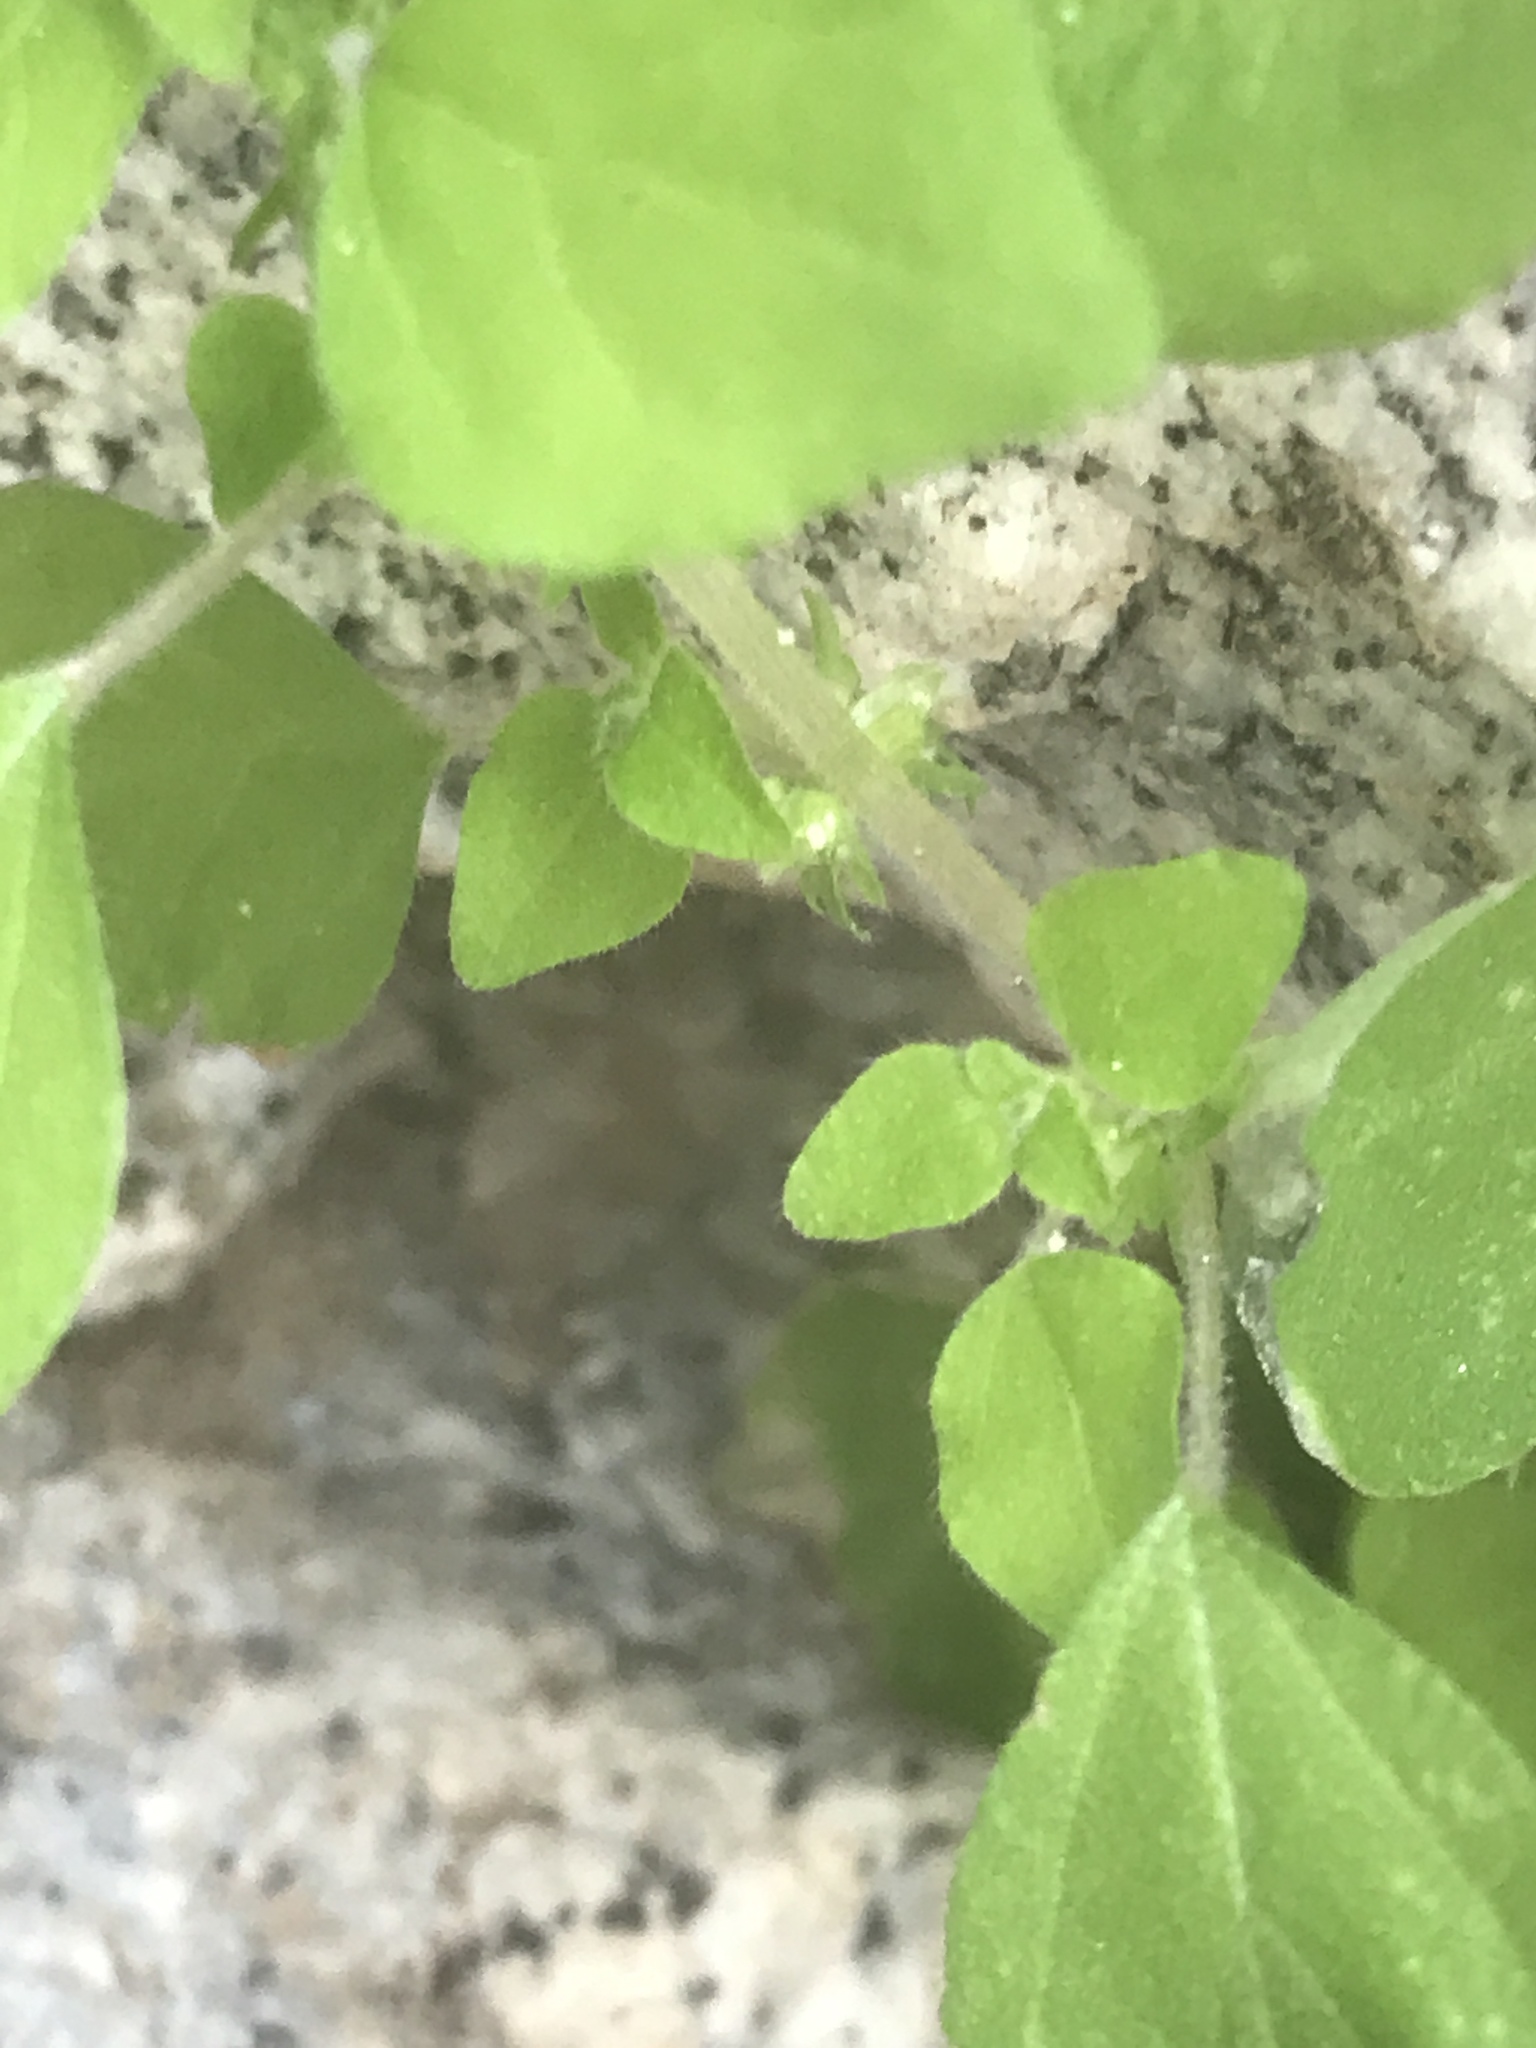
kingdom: Plantae
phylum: Tracheophyta
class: Magnoliopsida
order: Rosales
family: Urticaceae
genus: Parietaria
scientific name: Parietaria hespera
